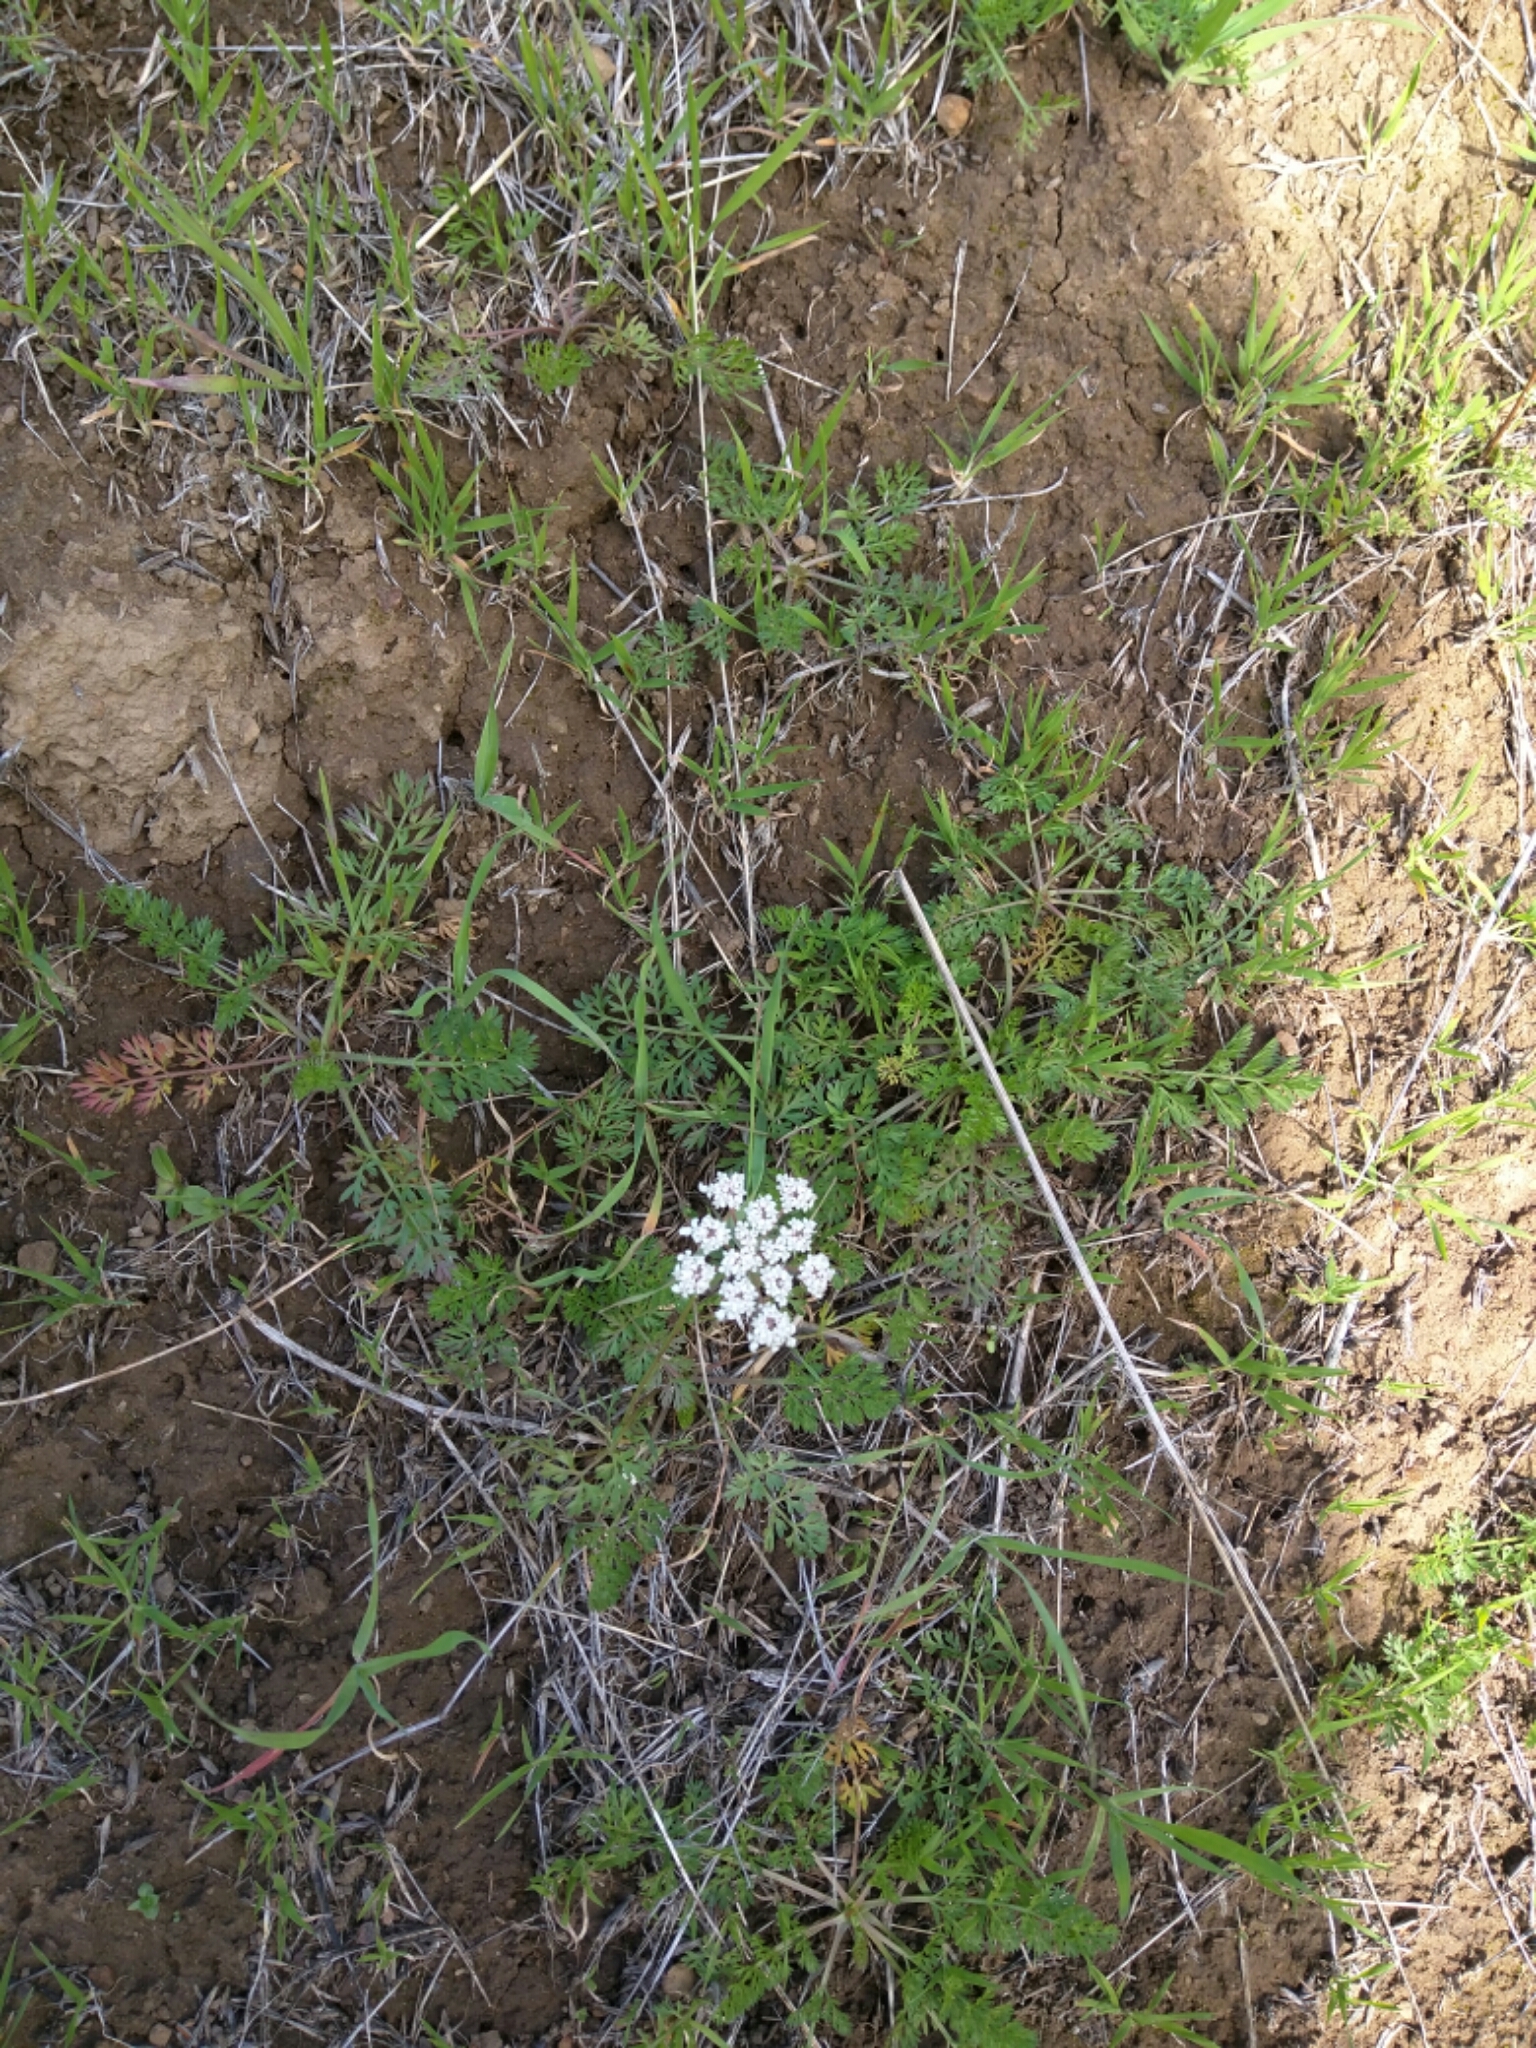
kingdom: Plantae
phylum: Tracheophyta
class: Magnoliopsida
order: Apiales
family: Apiaceae
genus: Daucus
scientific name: Daucus carota
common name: Wild carrot
